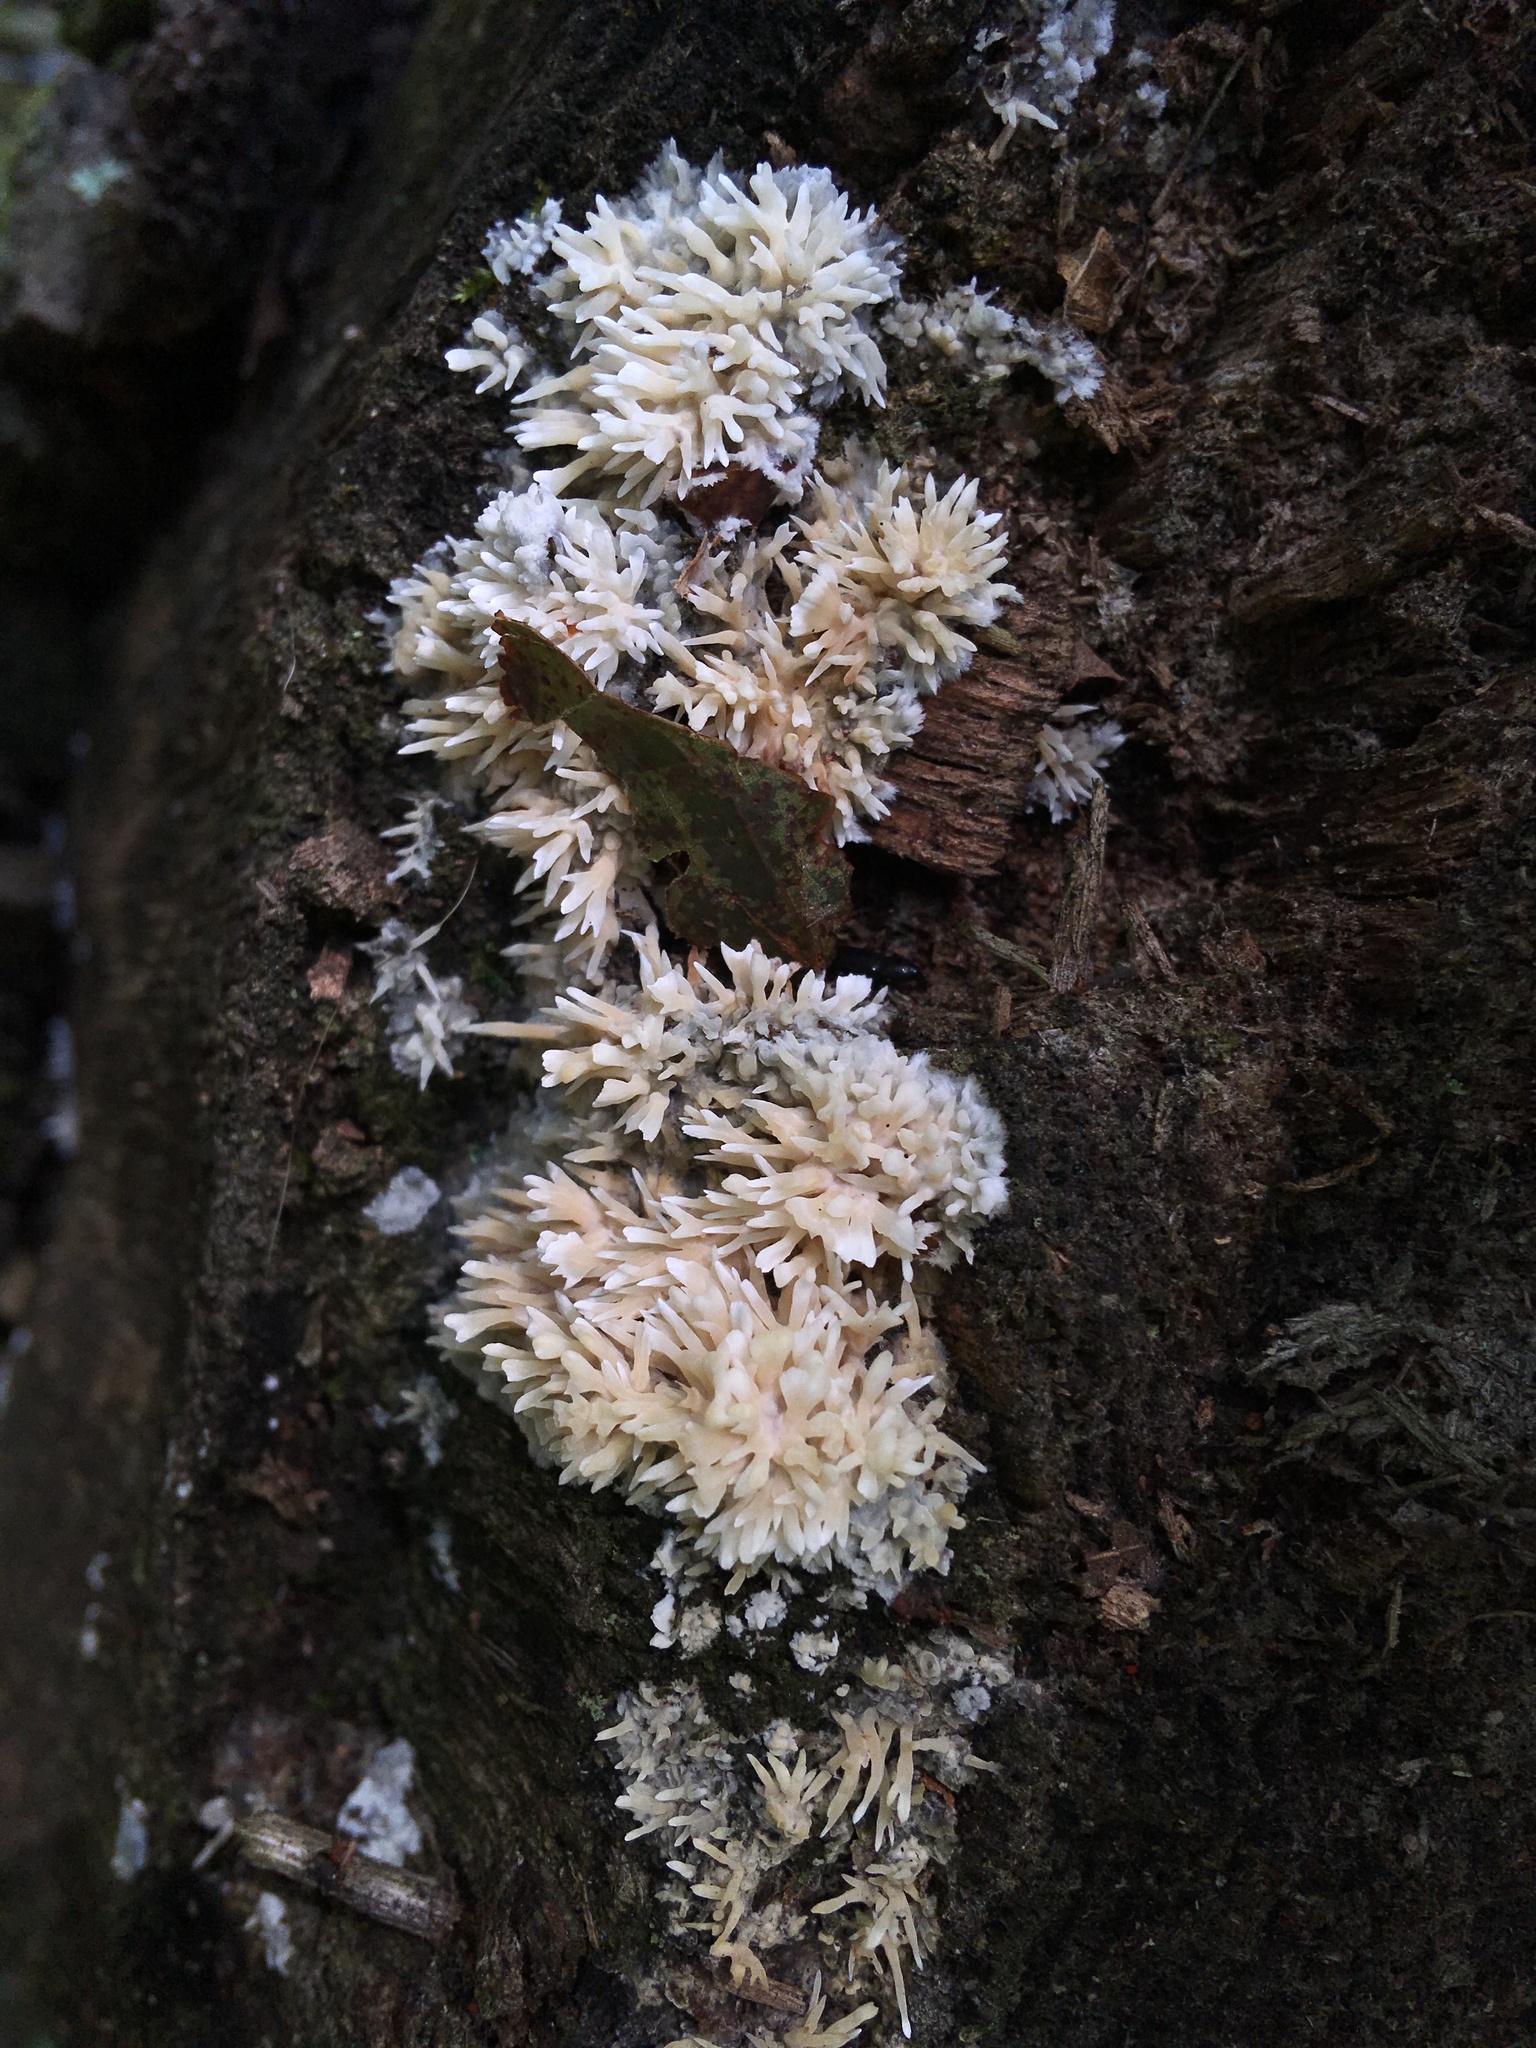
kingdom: Fungi
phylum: Basidiomycota
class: Agaricomycetes
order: Agaricales
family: Radulomycetaceae
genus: Radulomyces
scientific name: Radulomyces copelandii
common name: Asian beauty
